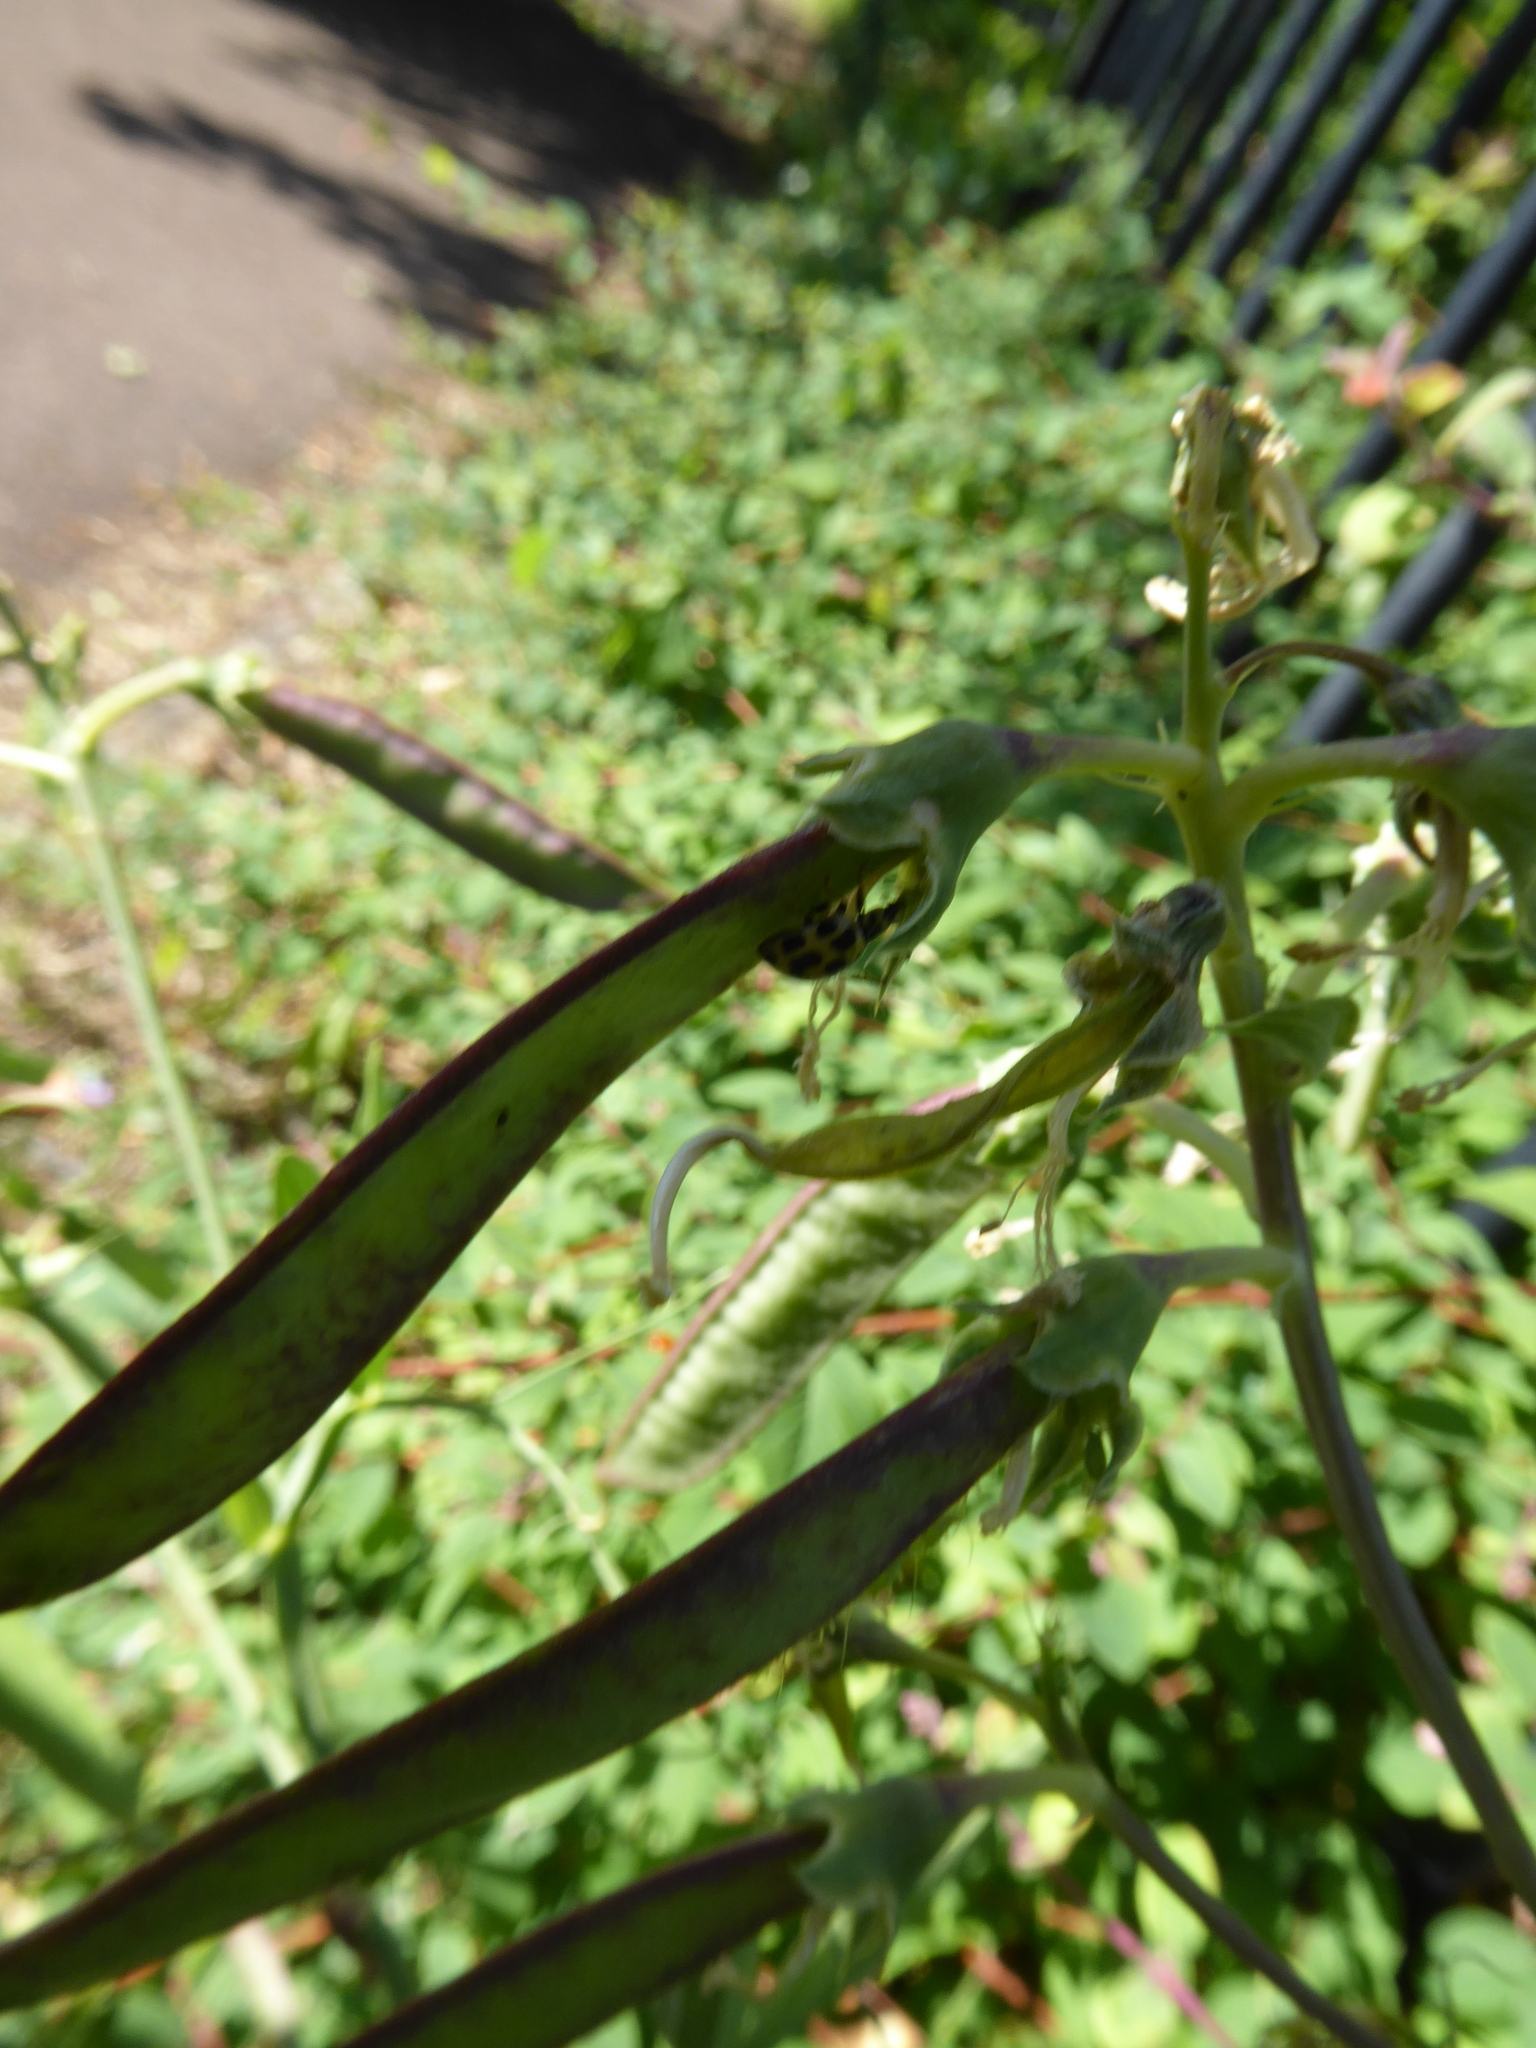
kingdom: Animalia
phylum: Arthropoda
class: Insecta
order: Coleoptera
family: Coccinellidae
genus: Propylaea
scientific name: Propylaea quatuordecimpunctata
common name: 14-spotted ladybird beetle
